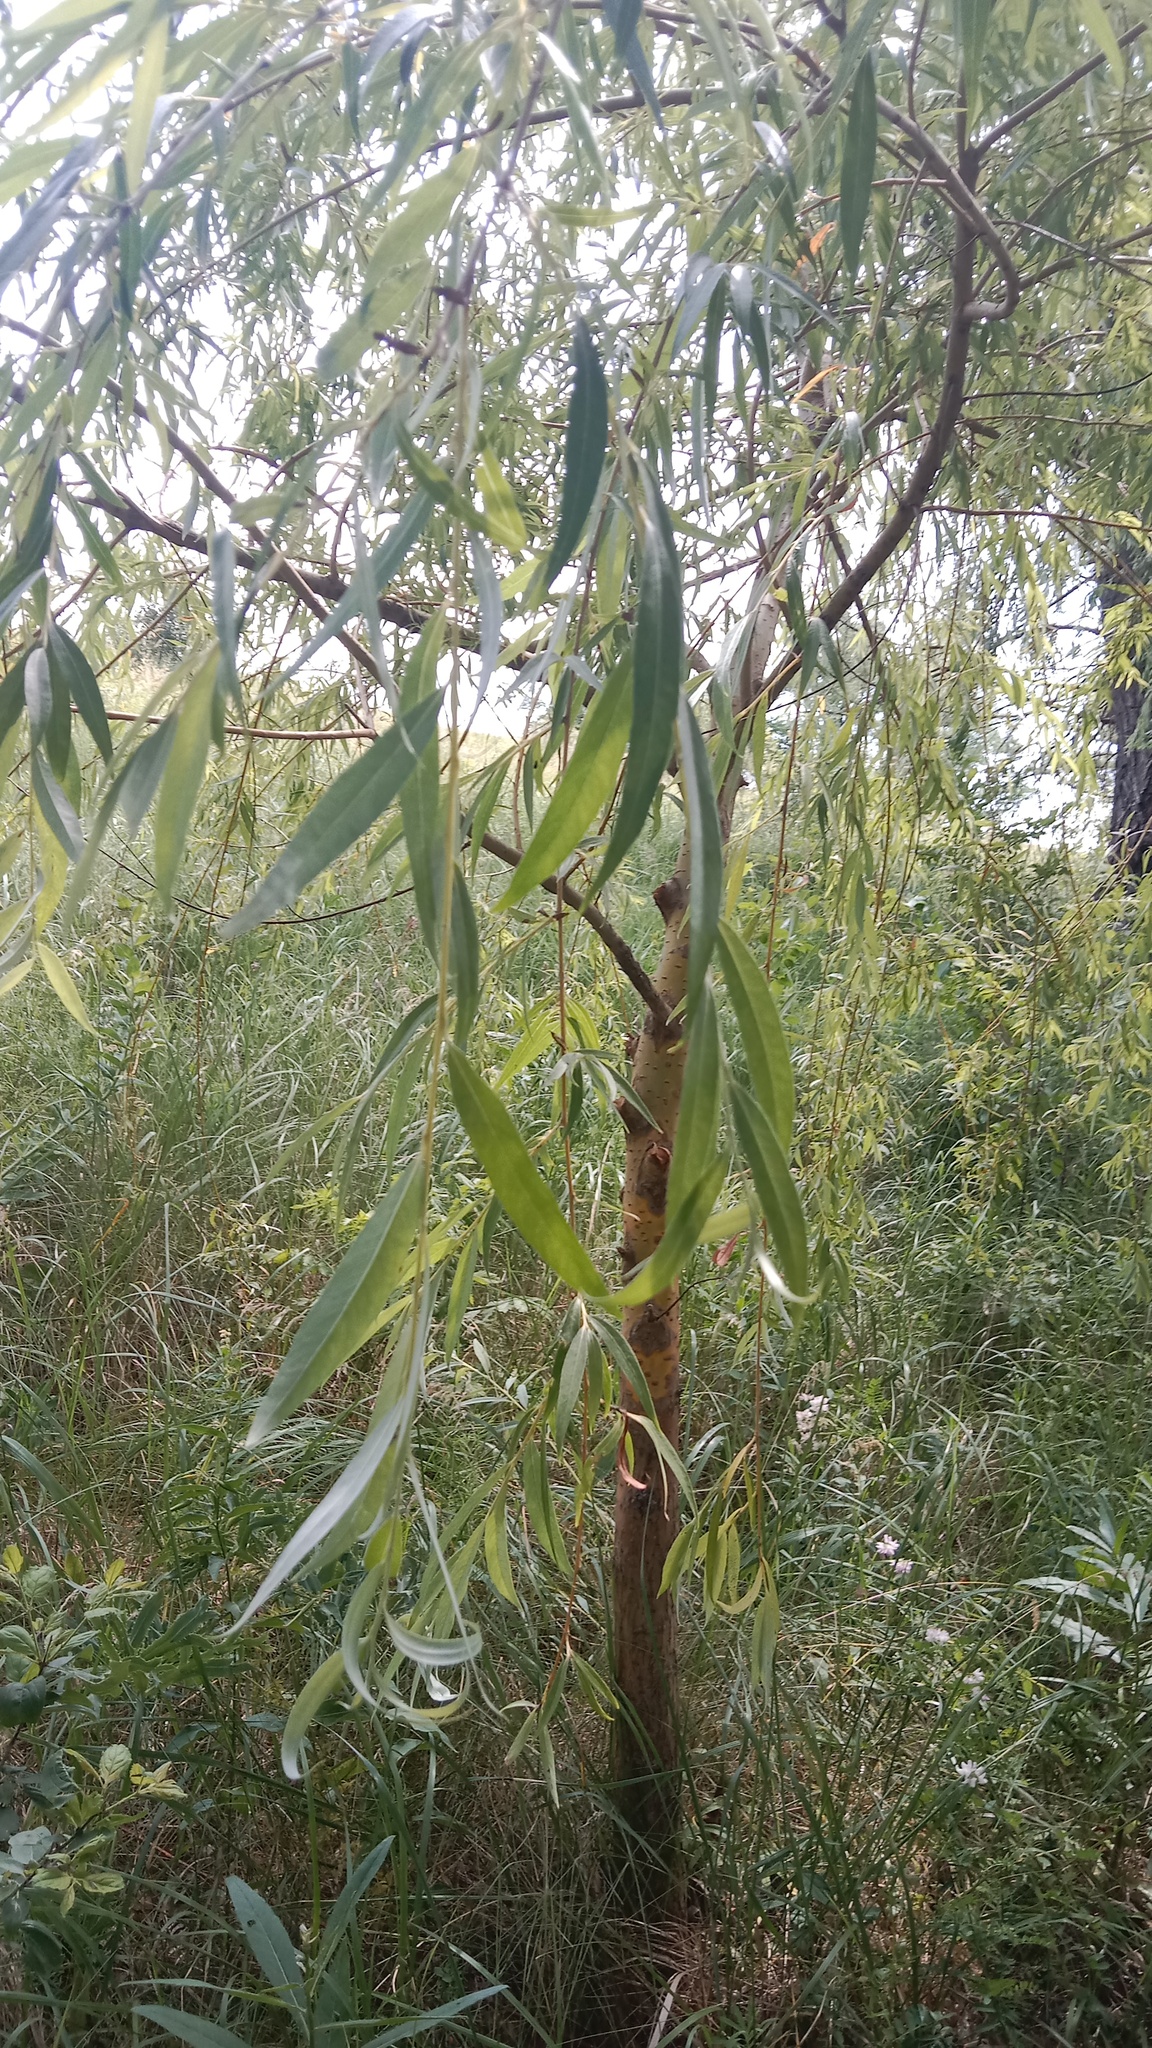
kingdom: Plantae
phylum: Tracheophyta
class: Magnoliopsida
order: Malpighiales
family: Salicaceae
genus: Salix
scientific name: Salix pendulina
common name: Wisconsin weeping willow
